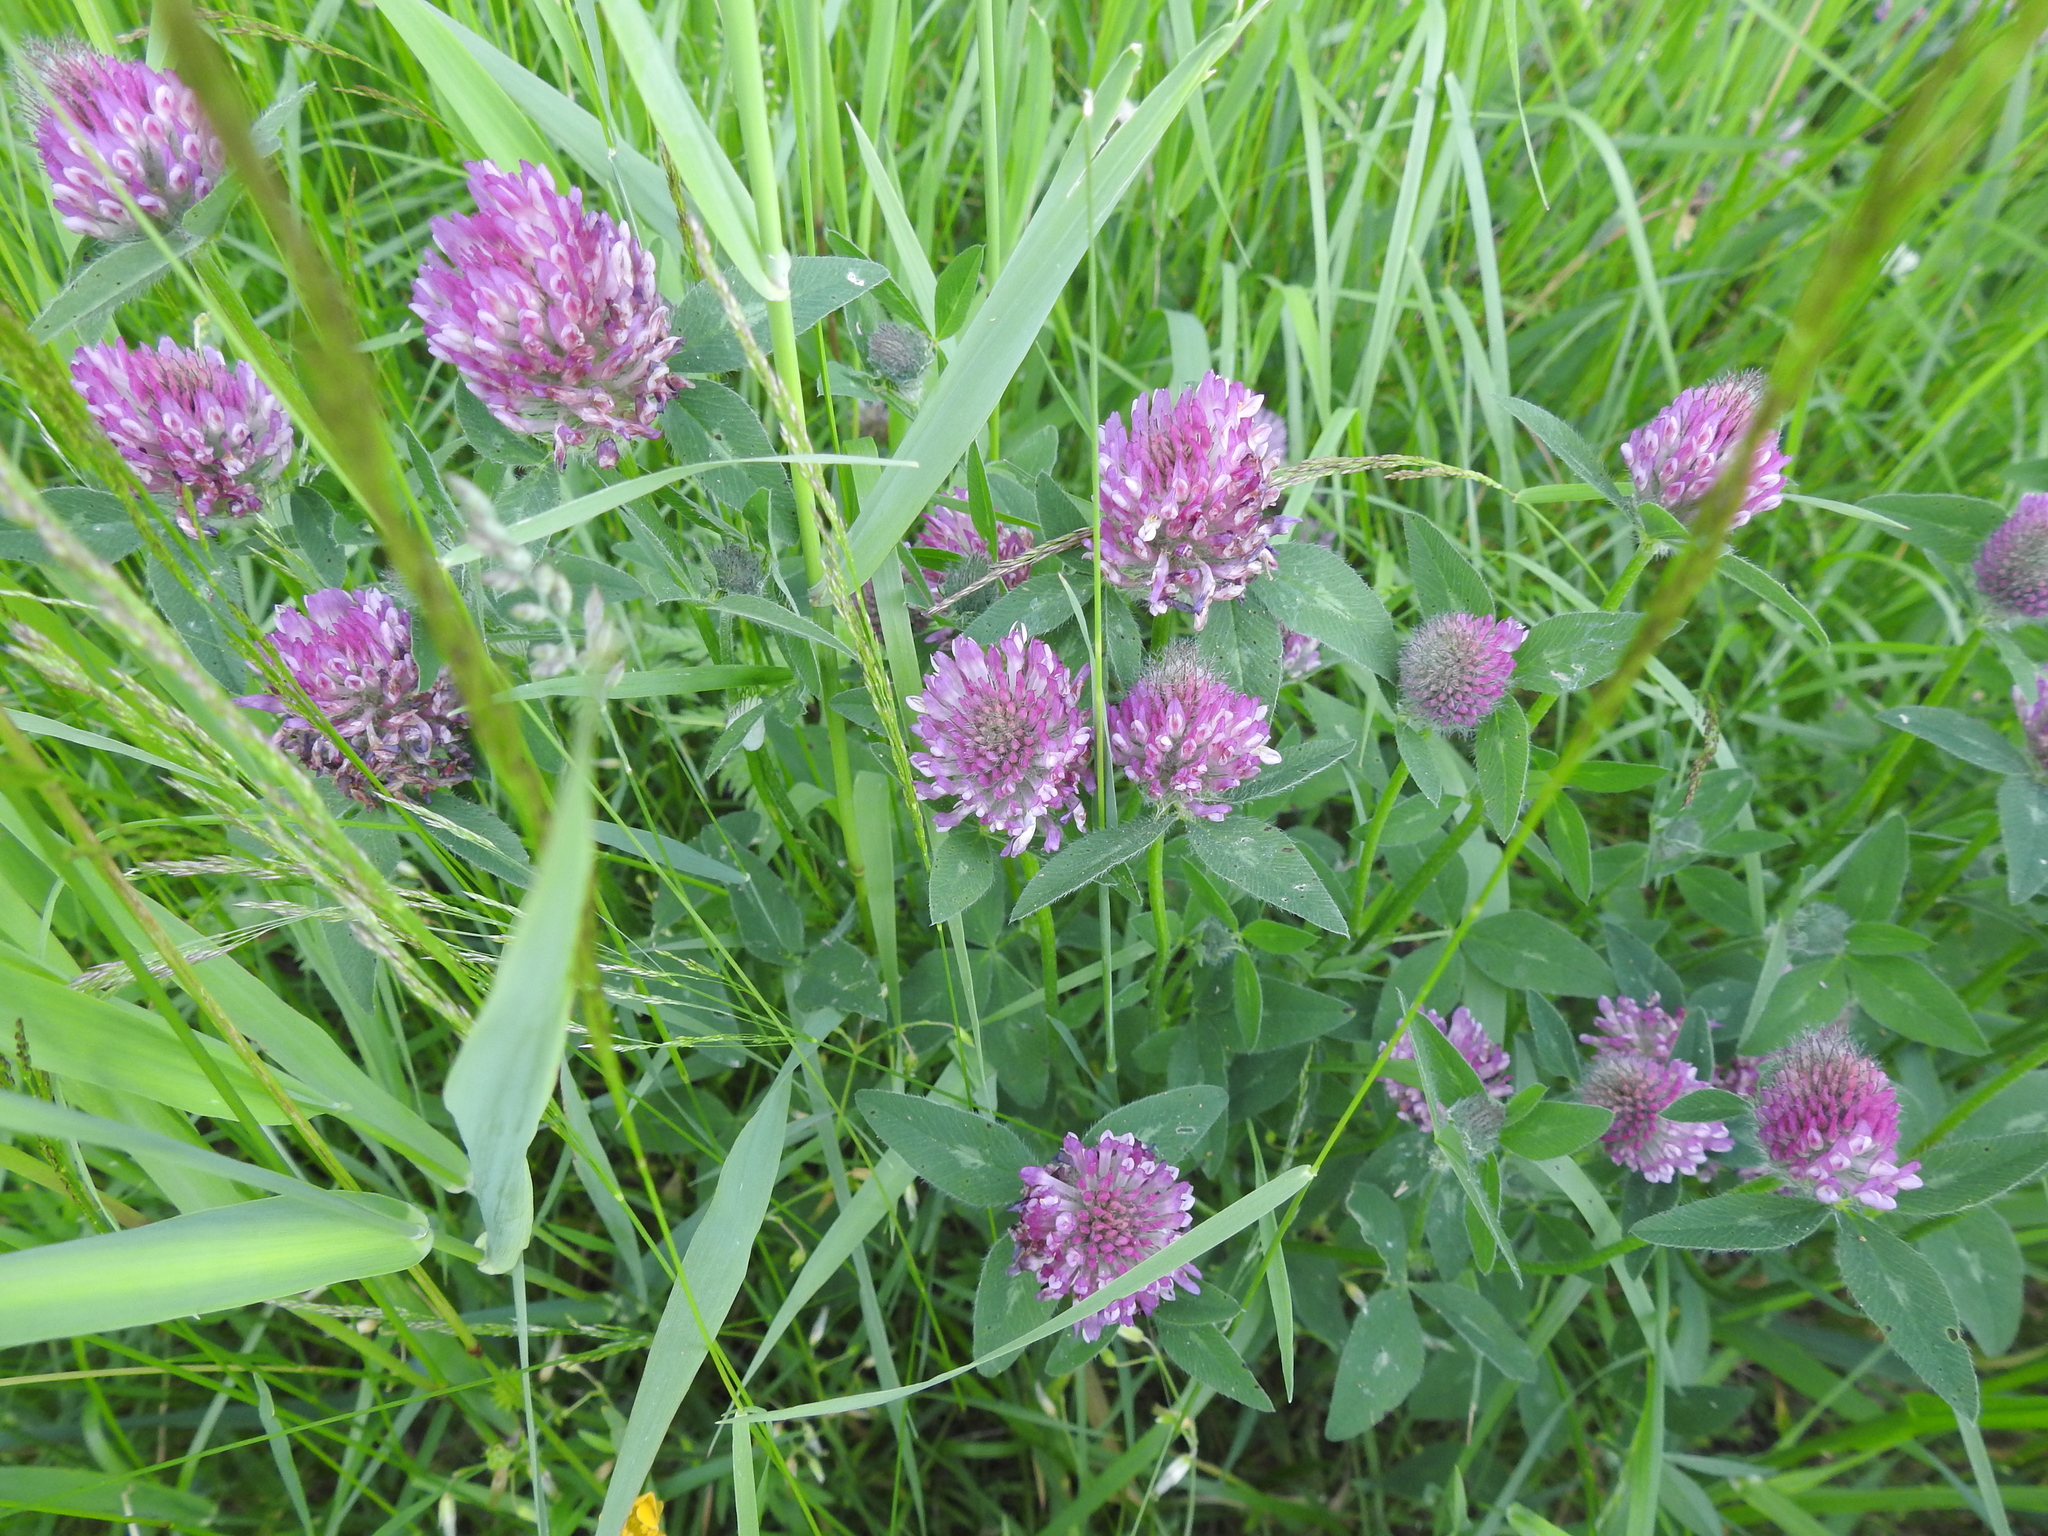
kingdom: Plantae
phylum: Tracheophyta
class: Magnoliopsida
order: Fabales
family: Fabaceae
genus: Trifolium
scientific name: Trifolium pratense
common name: Red clover
